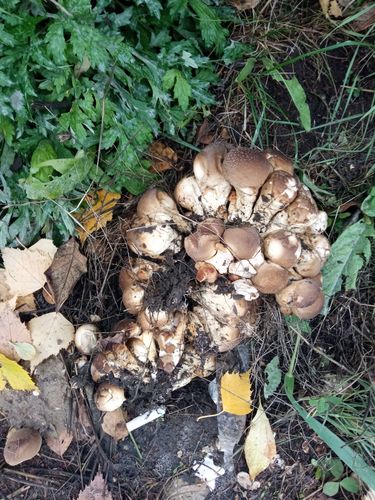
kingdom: Fungi
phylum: Basidiomycota
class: Agaricomycetes
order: Agaricales
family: Lycoperdaceae
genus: Apioperdon
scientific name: Apioperdon pyriforme
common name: Pear-shaped puffball
